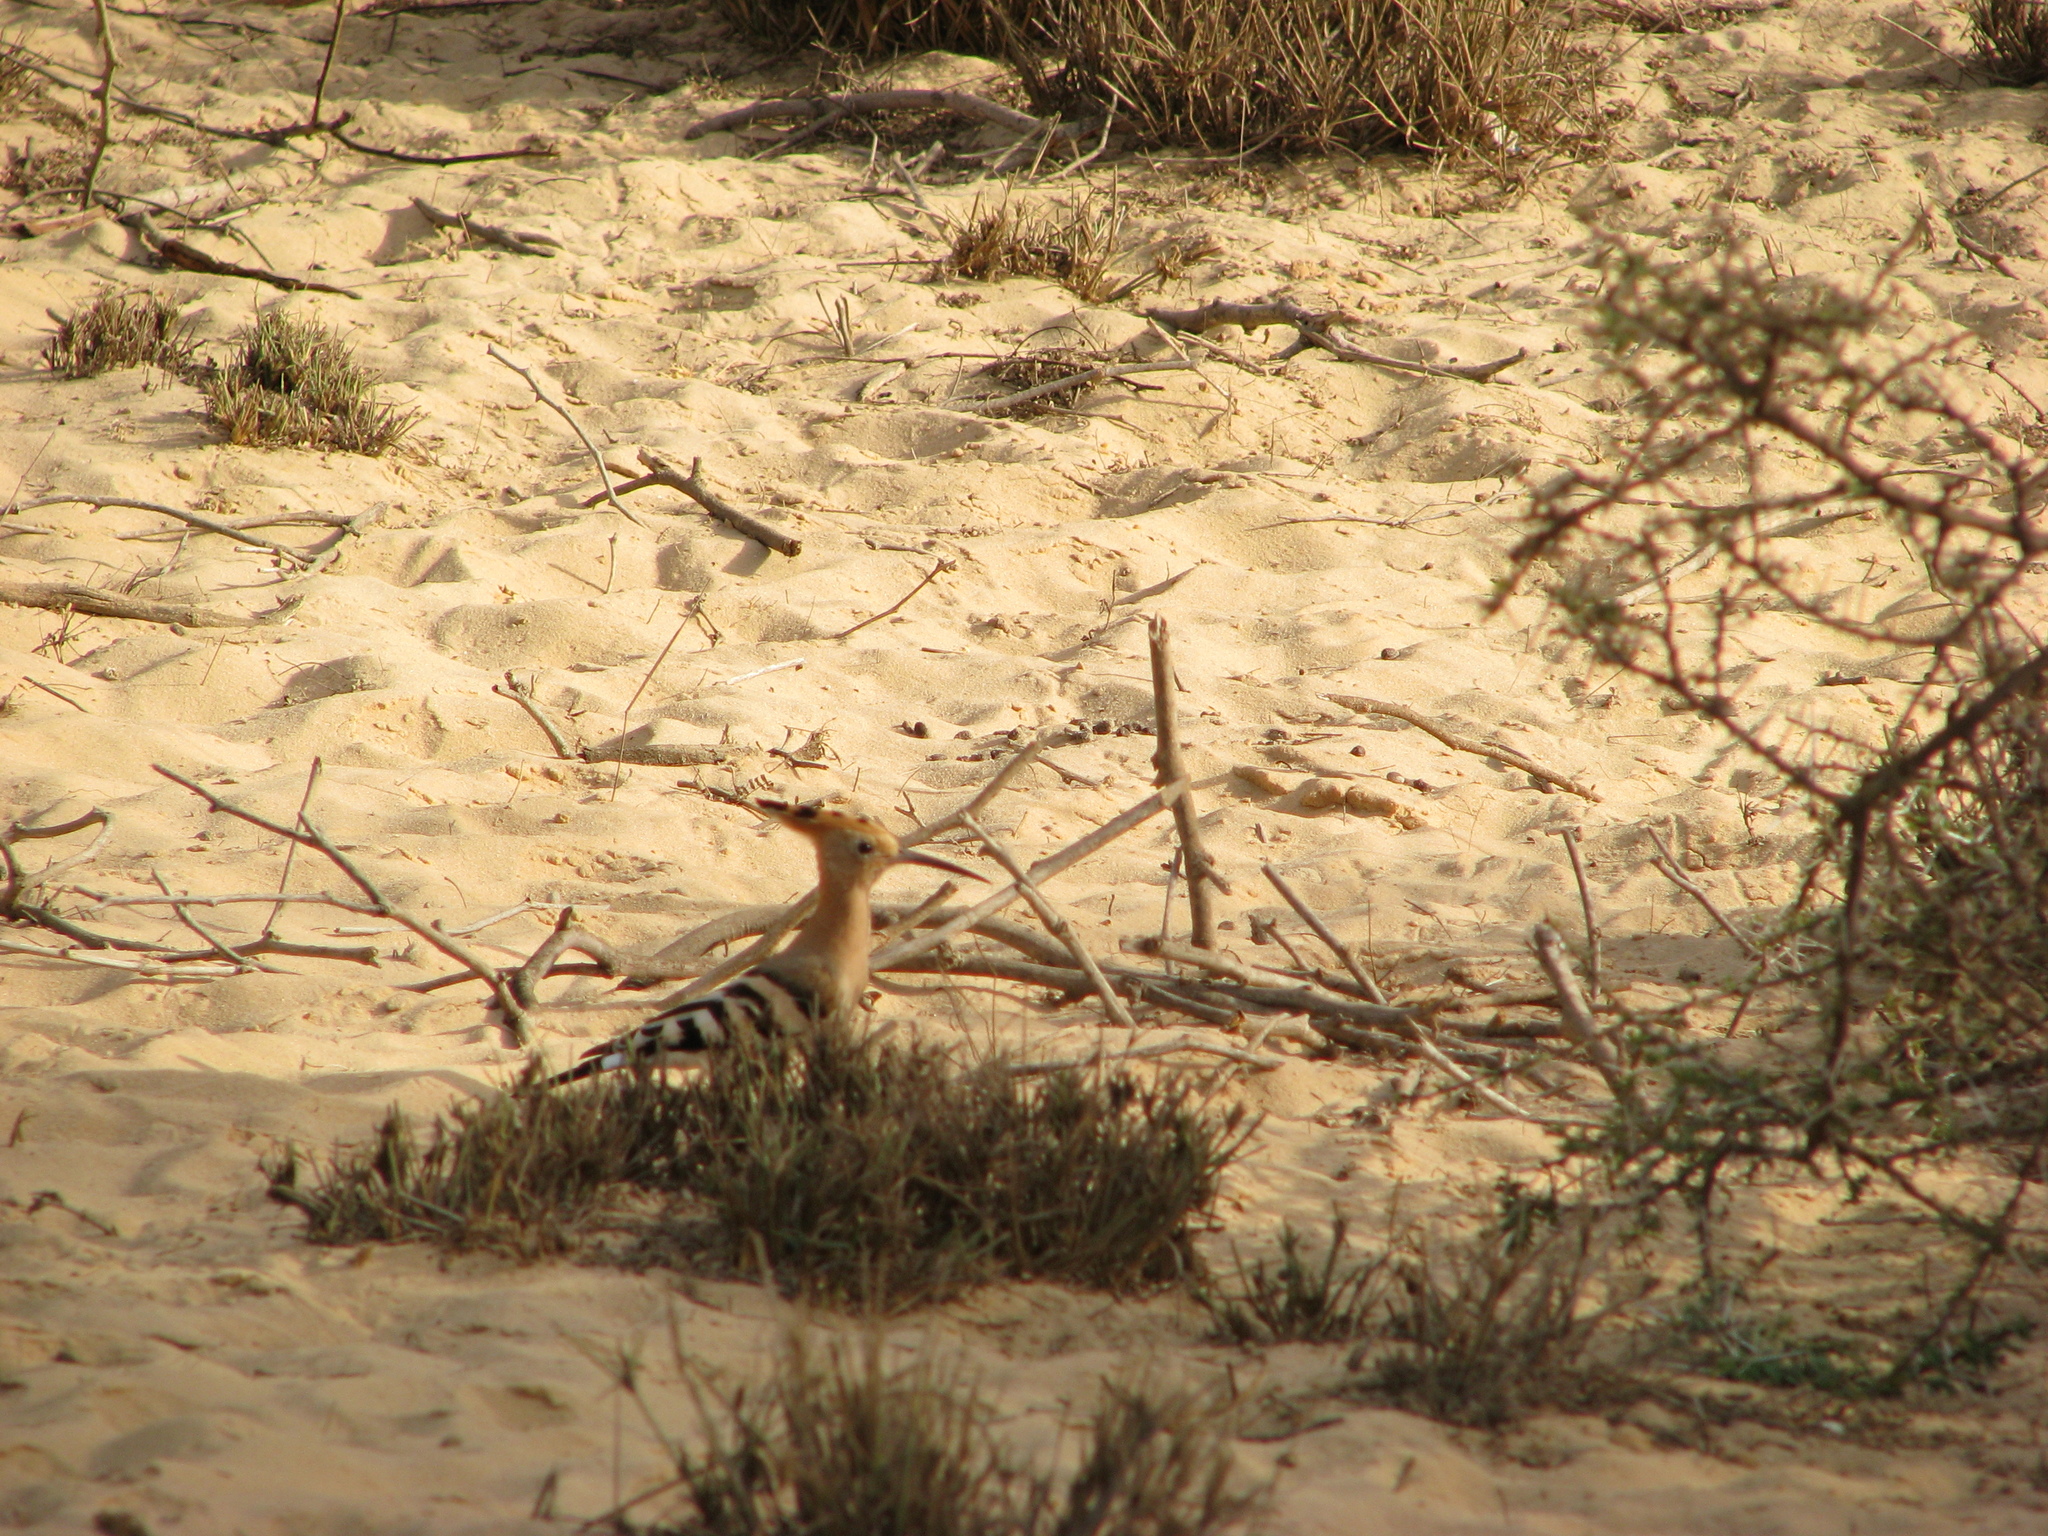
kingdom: Animalia
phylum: Chordata
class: Aves
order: Bucerotiformes
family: Upupidae
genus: Upupa
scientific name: Upupa epops
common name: Eurasian hoopoe
